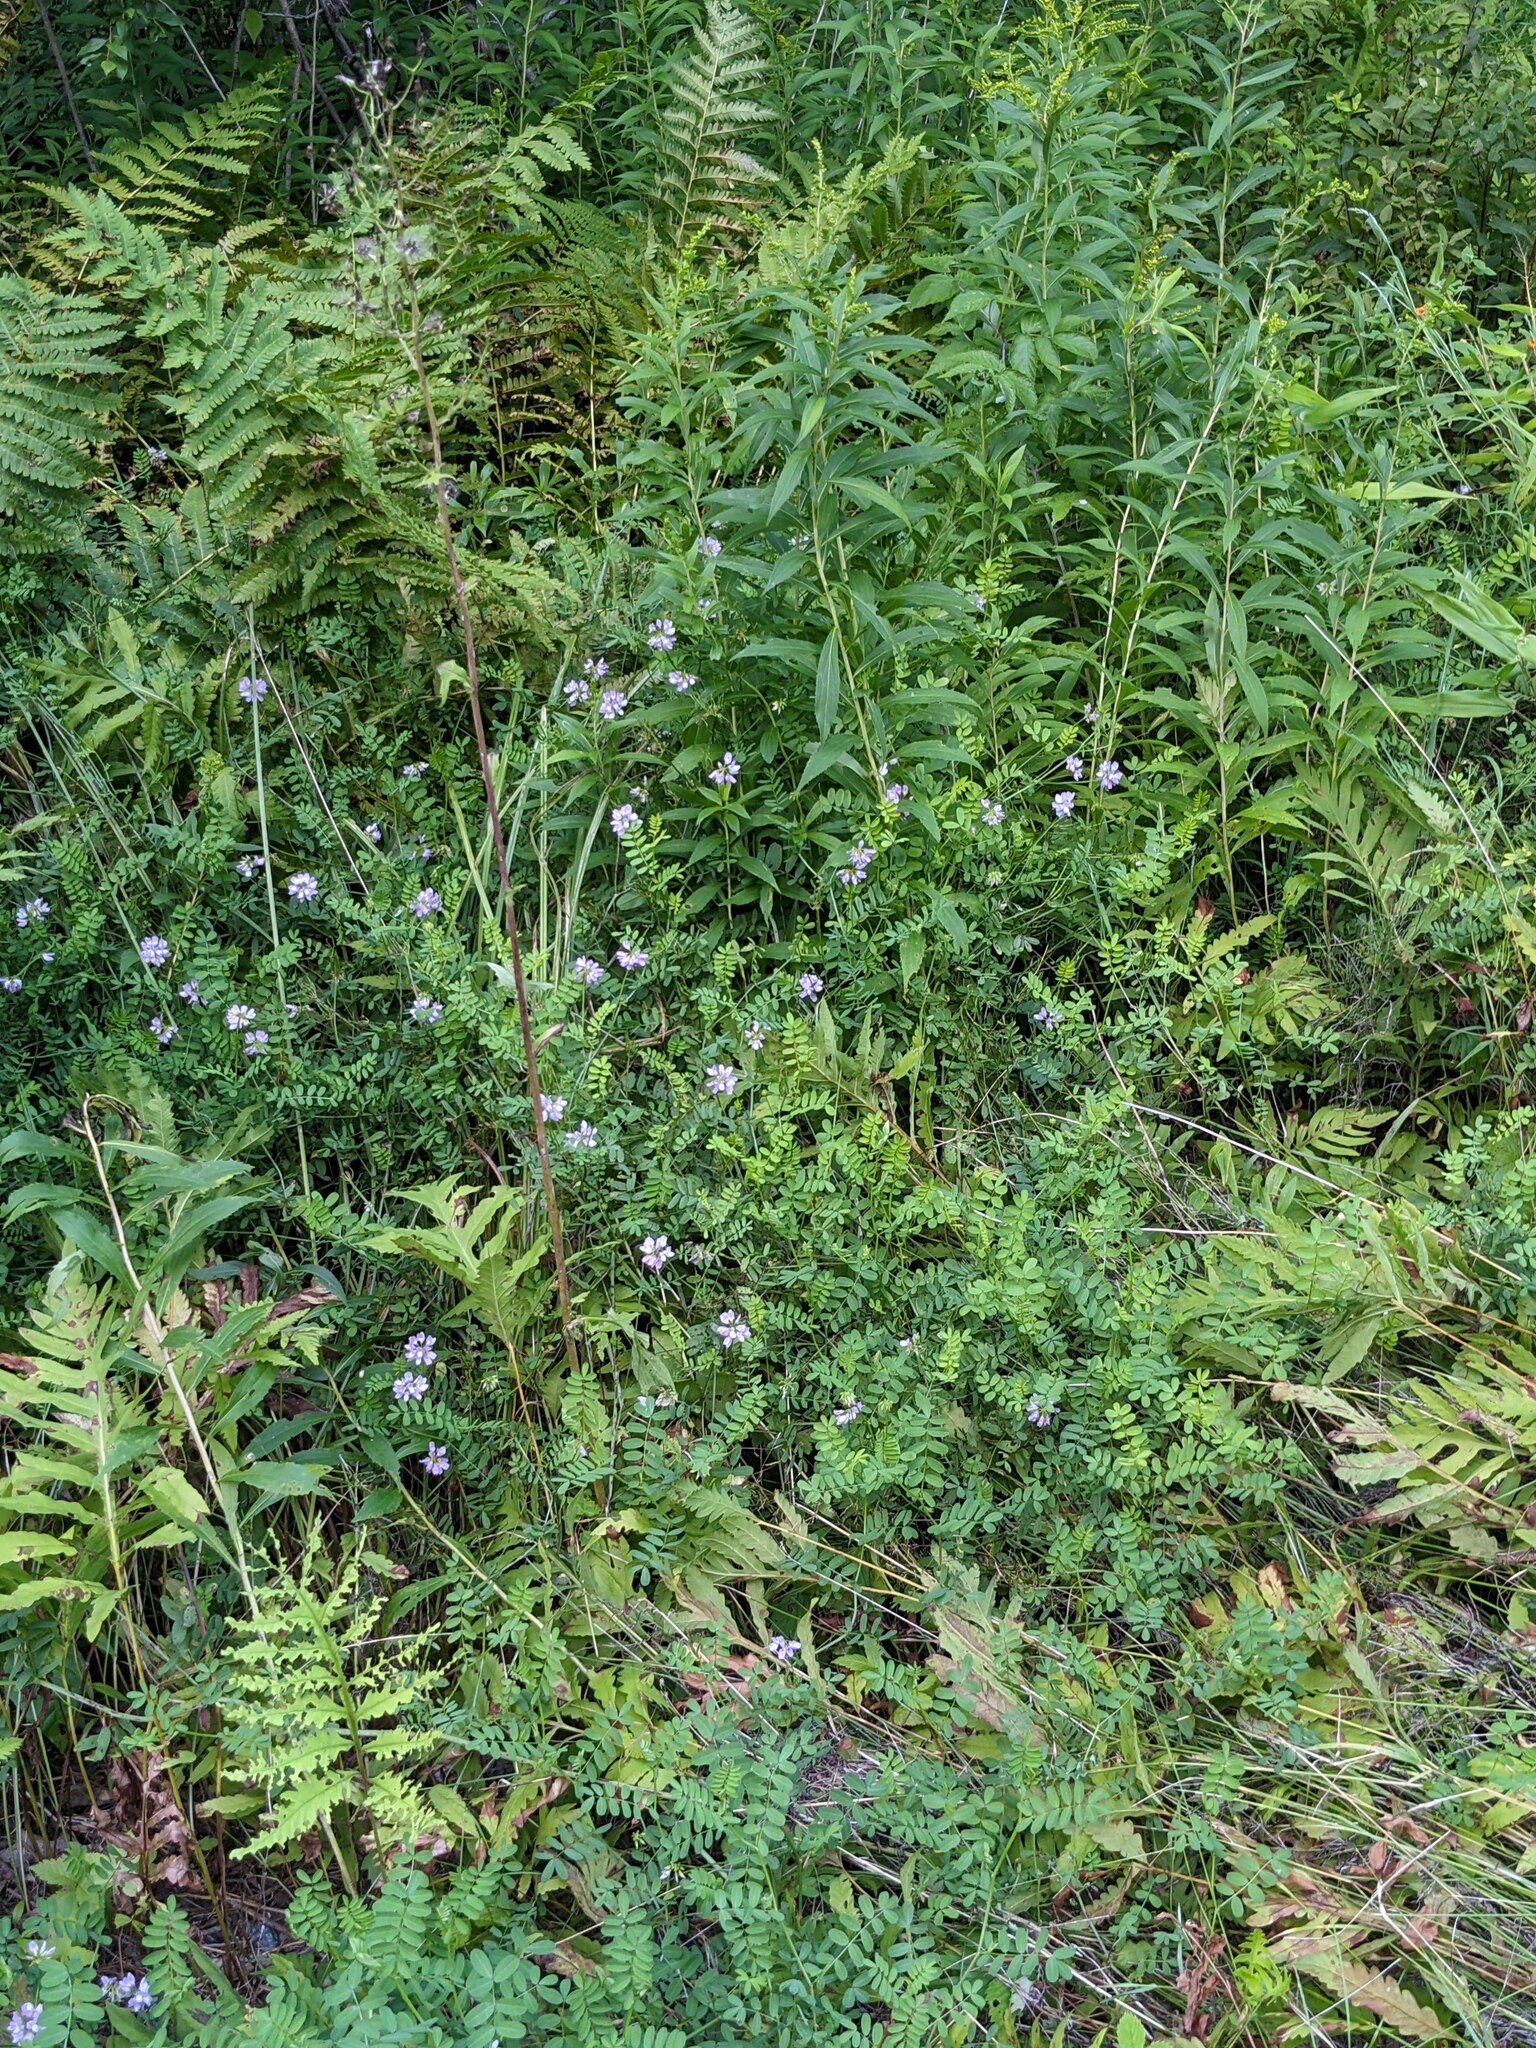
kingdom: Plantae
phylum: Tracheophyta
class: Magnoliopsida
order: Fabales
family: Fabaceae
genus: Coronilla
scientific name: Coronilla varia
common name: Crownvetch
